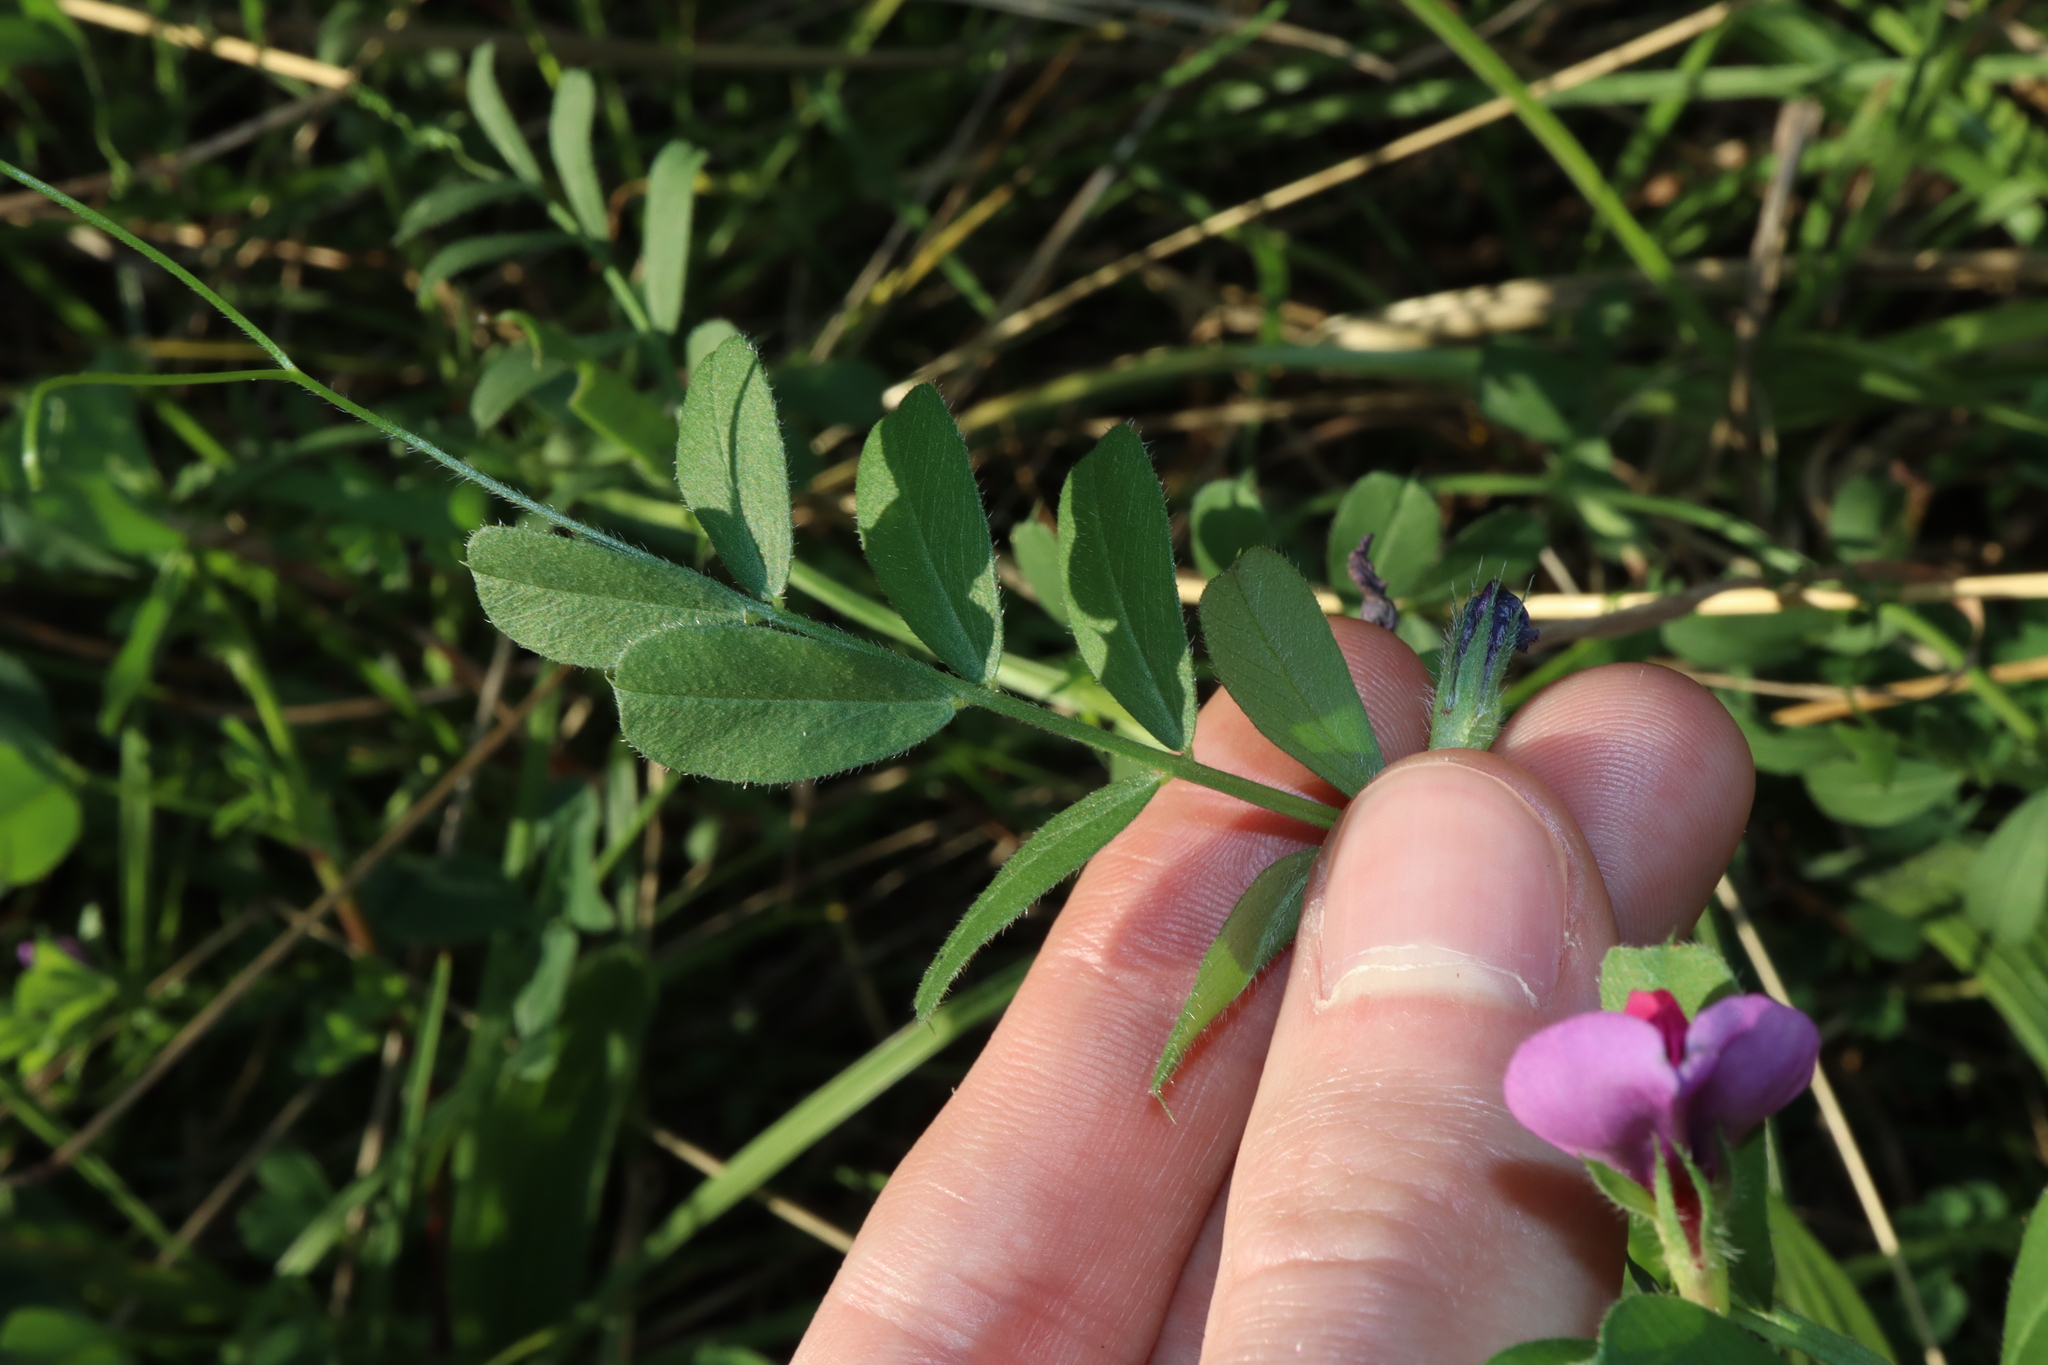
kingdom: Plantae
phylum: Tracheophyta
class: Magnoliopsida
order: Fabales
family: Fabaceae
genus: Vicia
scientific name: Vicia sativa
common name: Garden vetch
